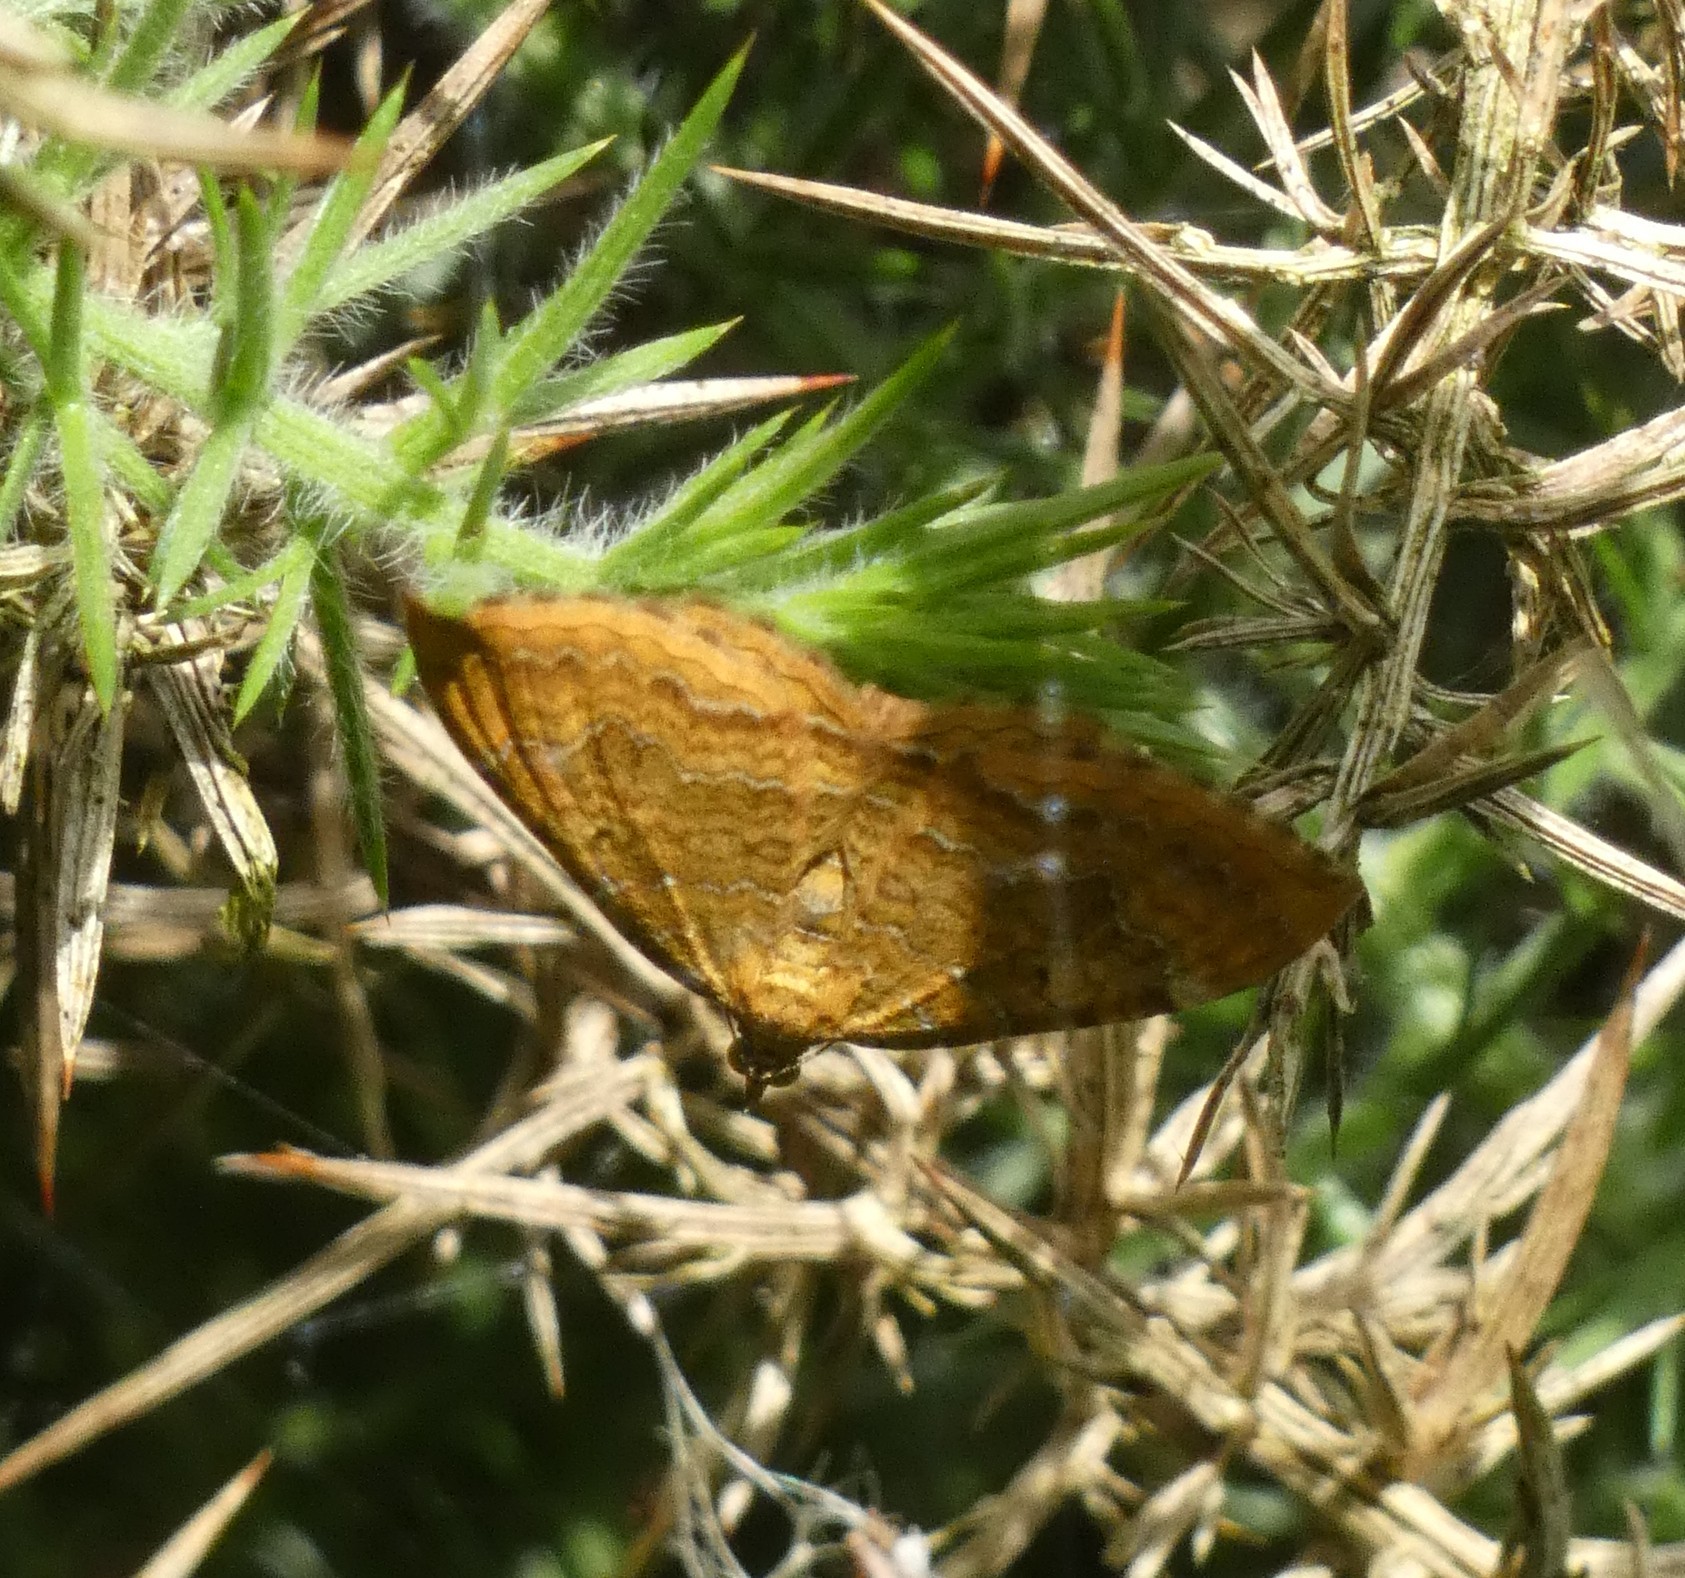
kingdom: Animalia
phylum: Arthropoda
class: Insecta
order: Lepidoptera
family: Geometridae
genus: Camptogramma
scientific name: Camptogramma bilineata
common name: Yellow shell
